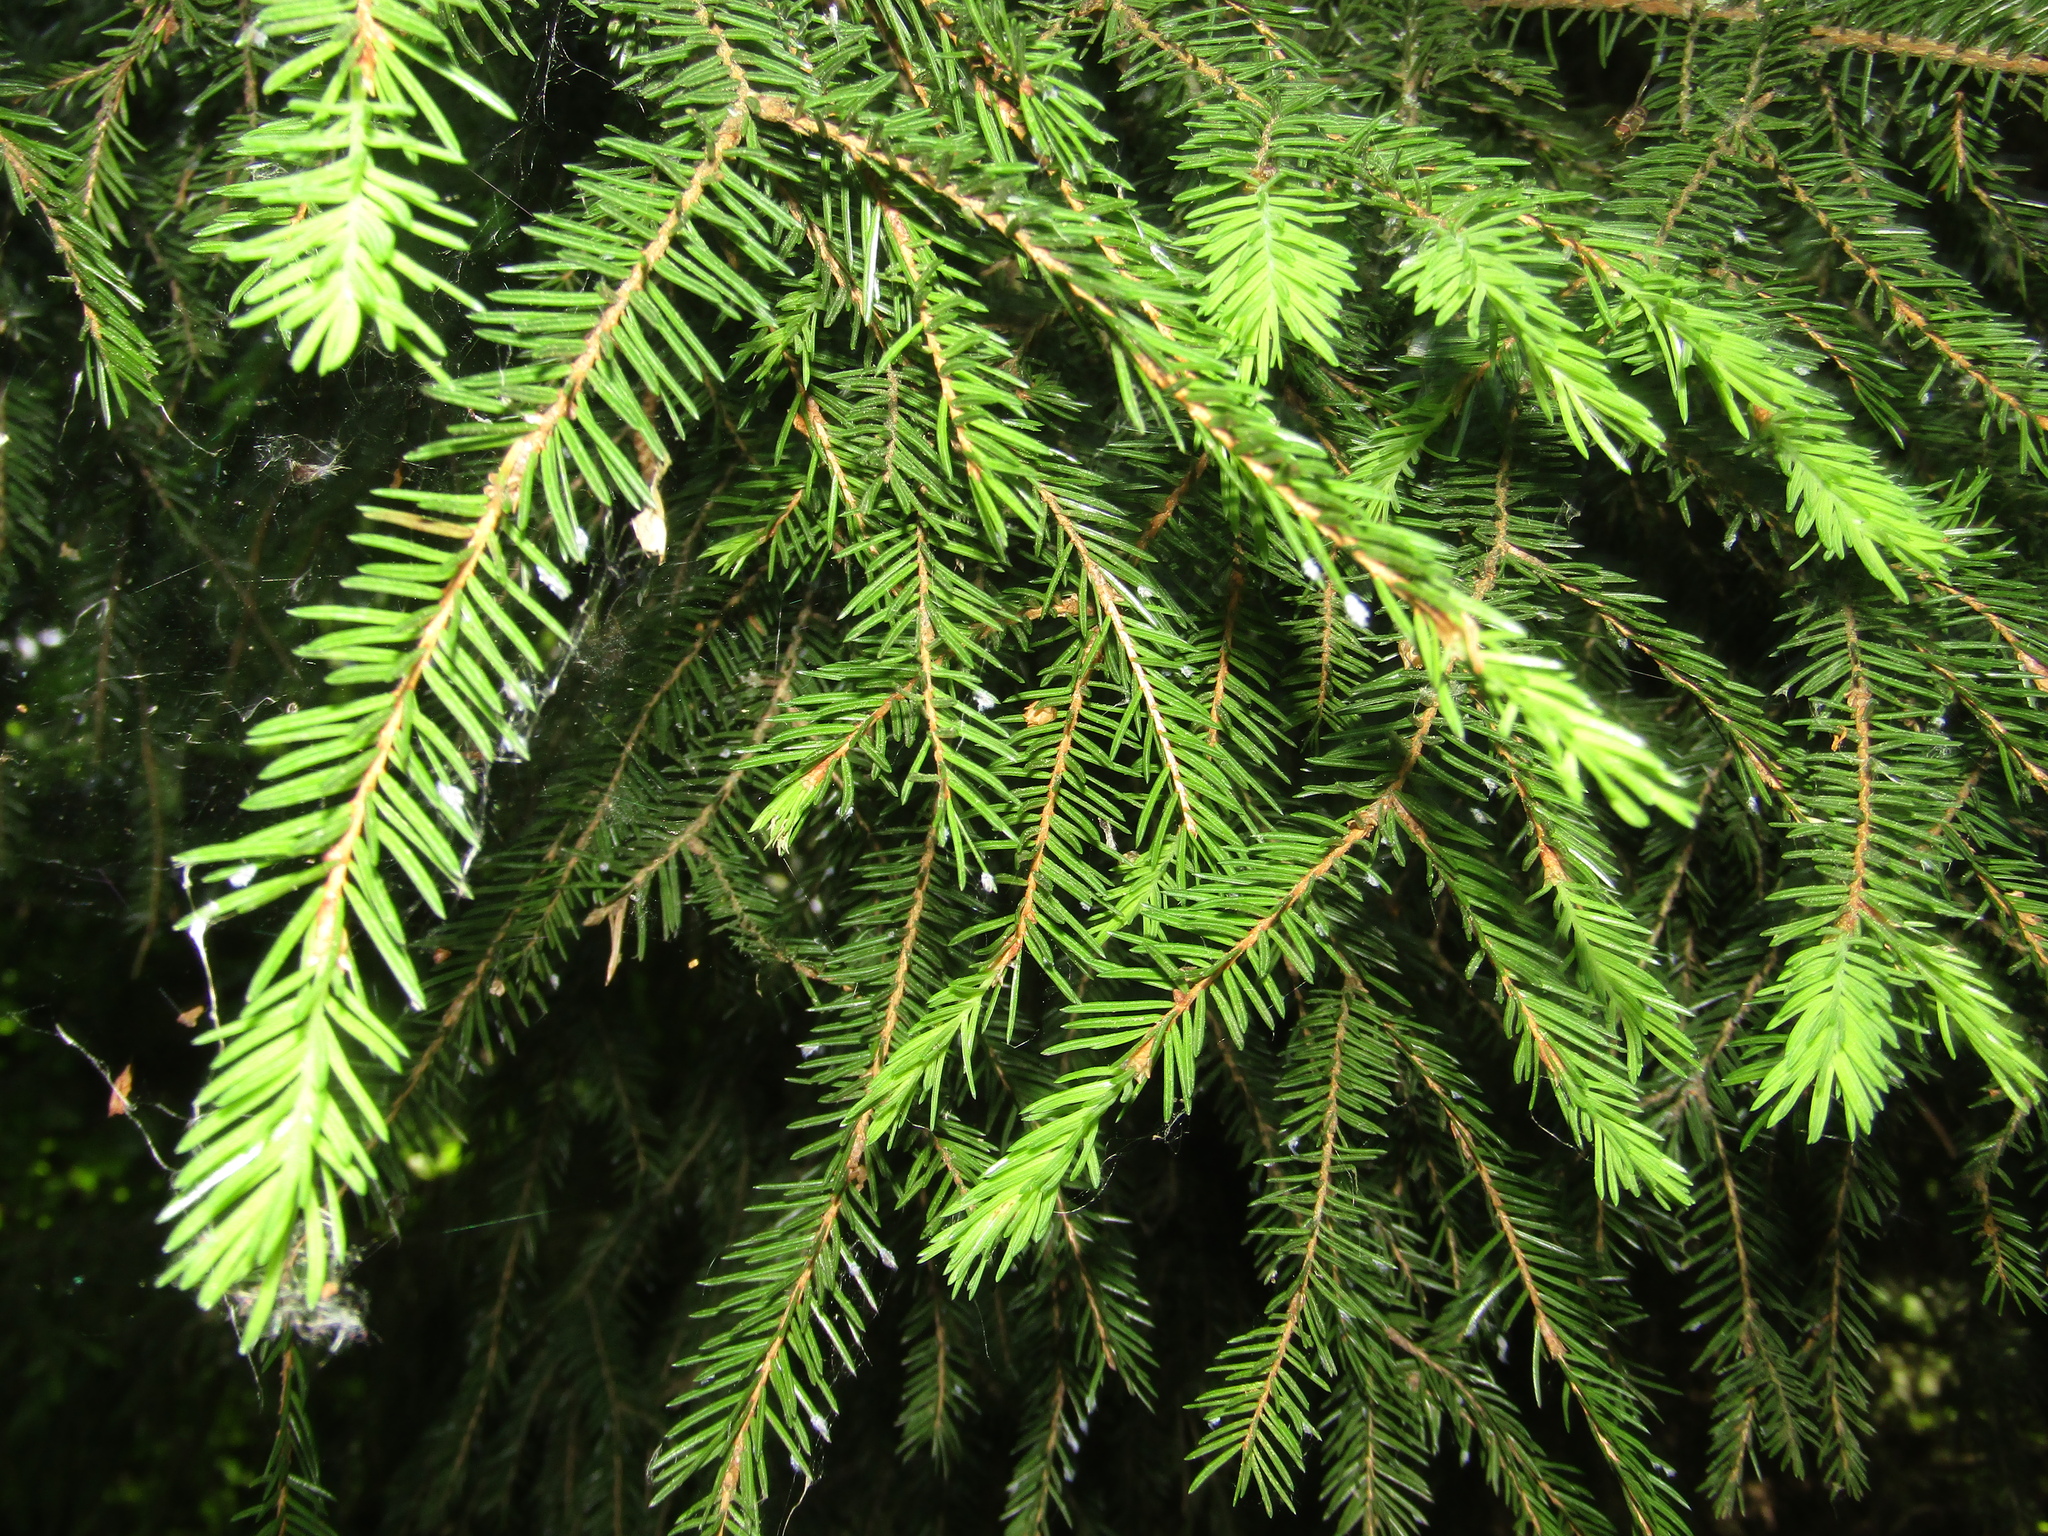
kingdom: Plantae
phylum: Tracheophyta
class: Pinopsida
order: Pinales
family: Pinaceae
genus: Picea
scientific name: Picea abies
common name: Norway spruce
